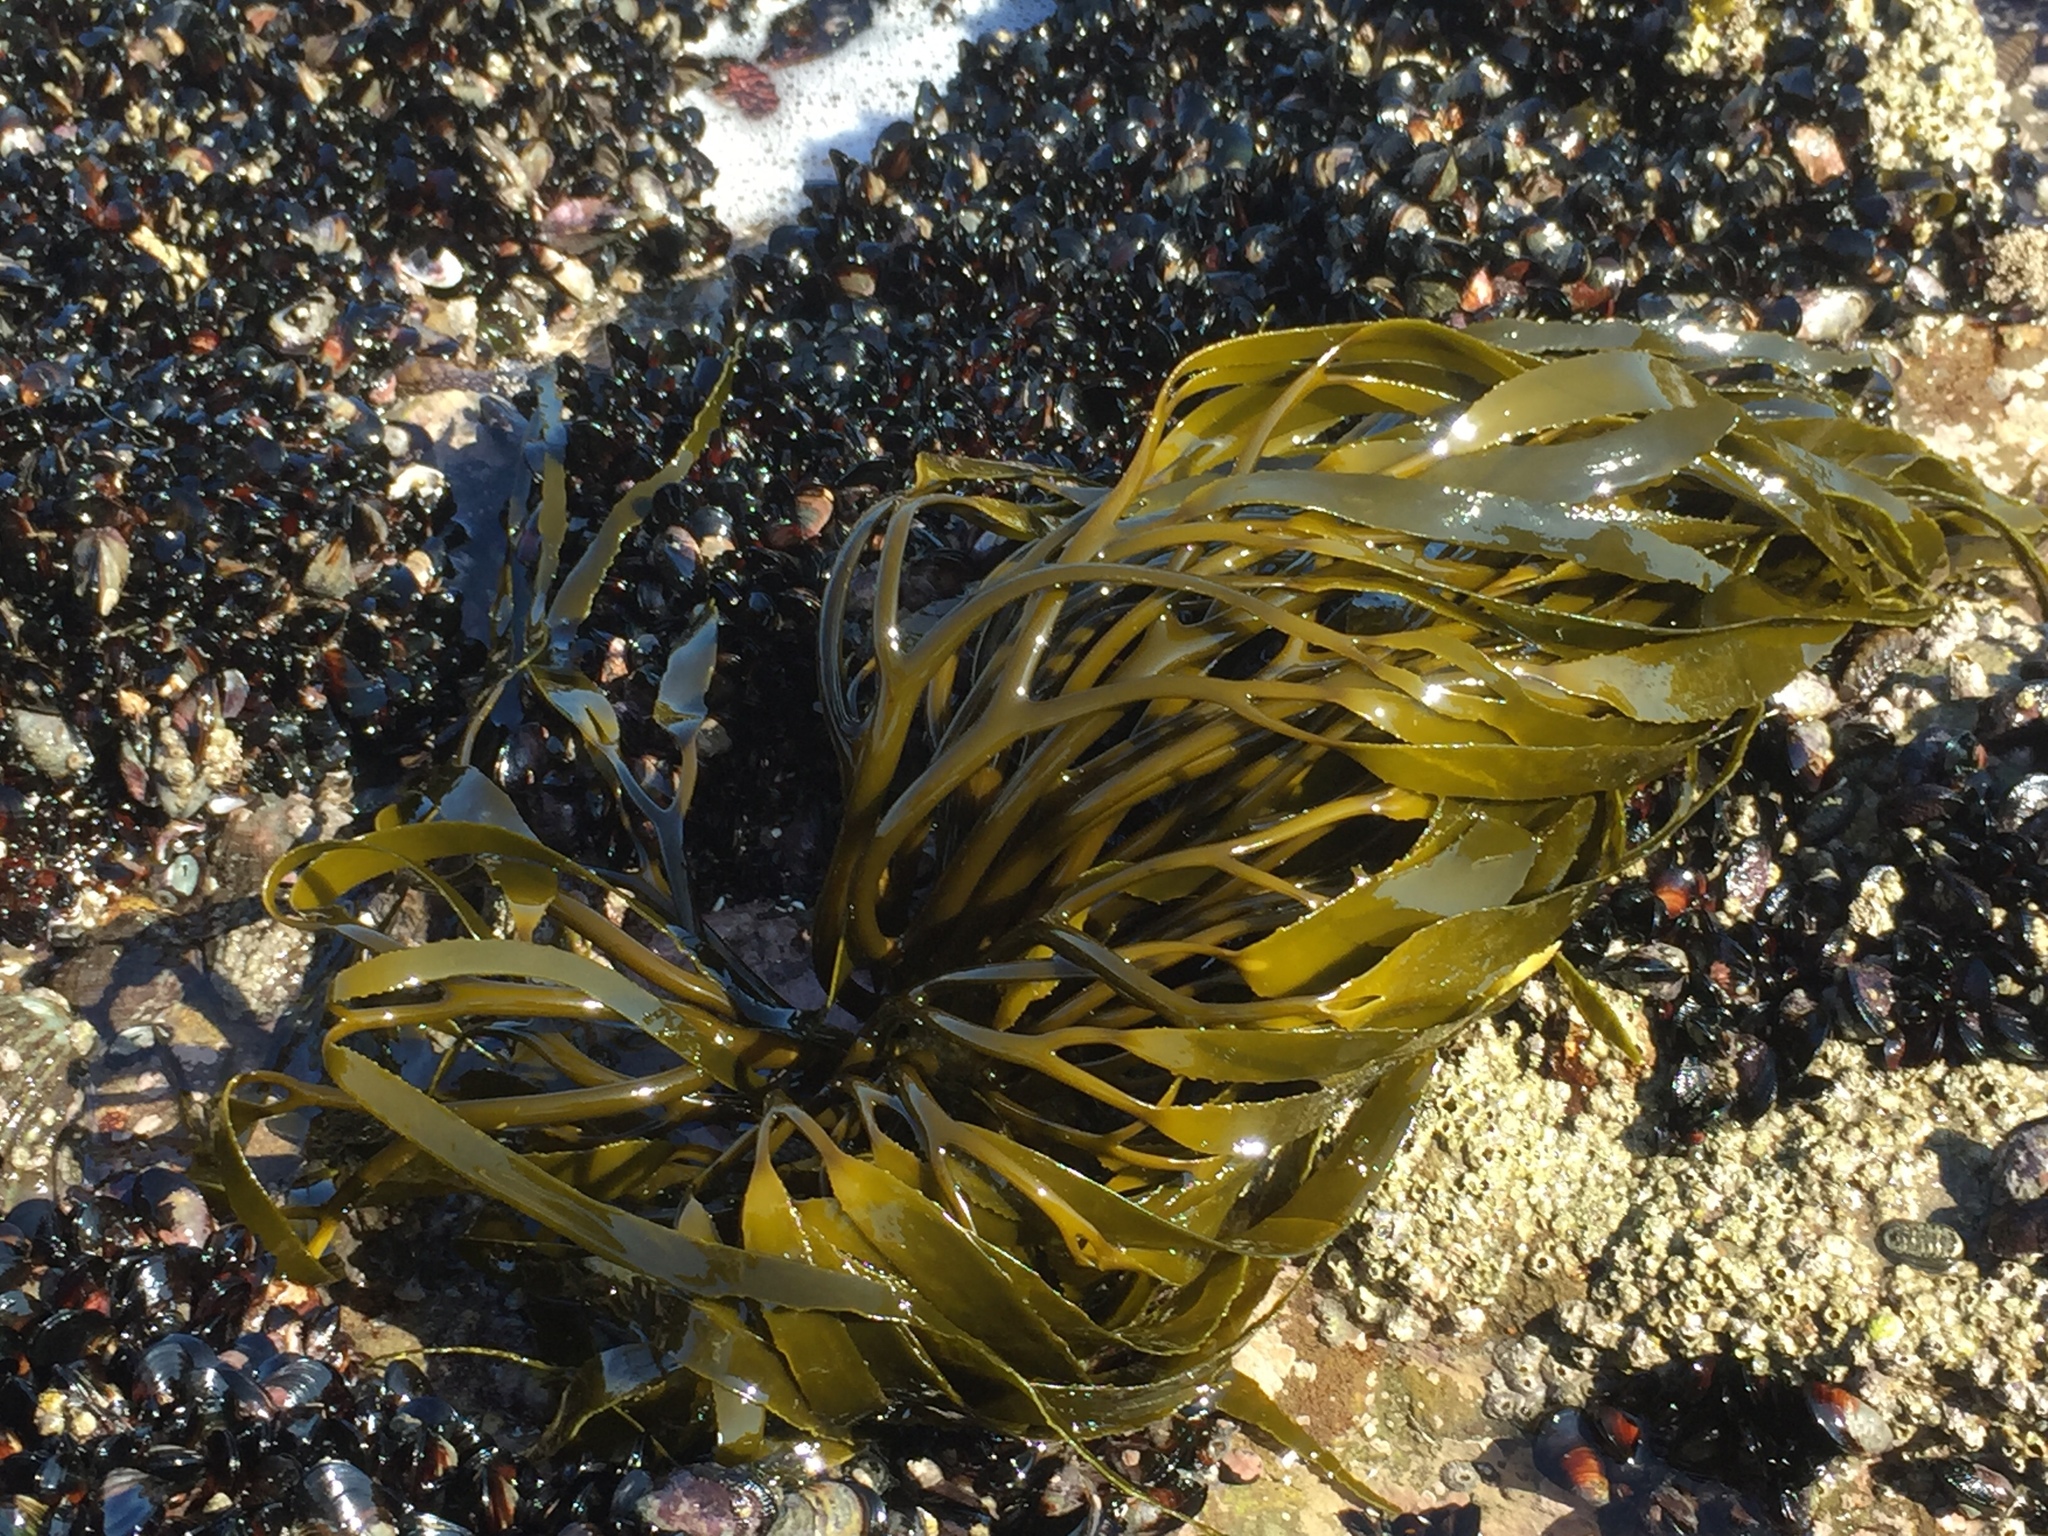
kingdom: Chromista
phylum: Ochrophyta
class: Phaeophyceae
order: Laminariales
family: Lessoniaceae
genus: Lessonia
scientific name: Lessonia
